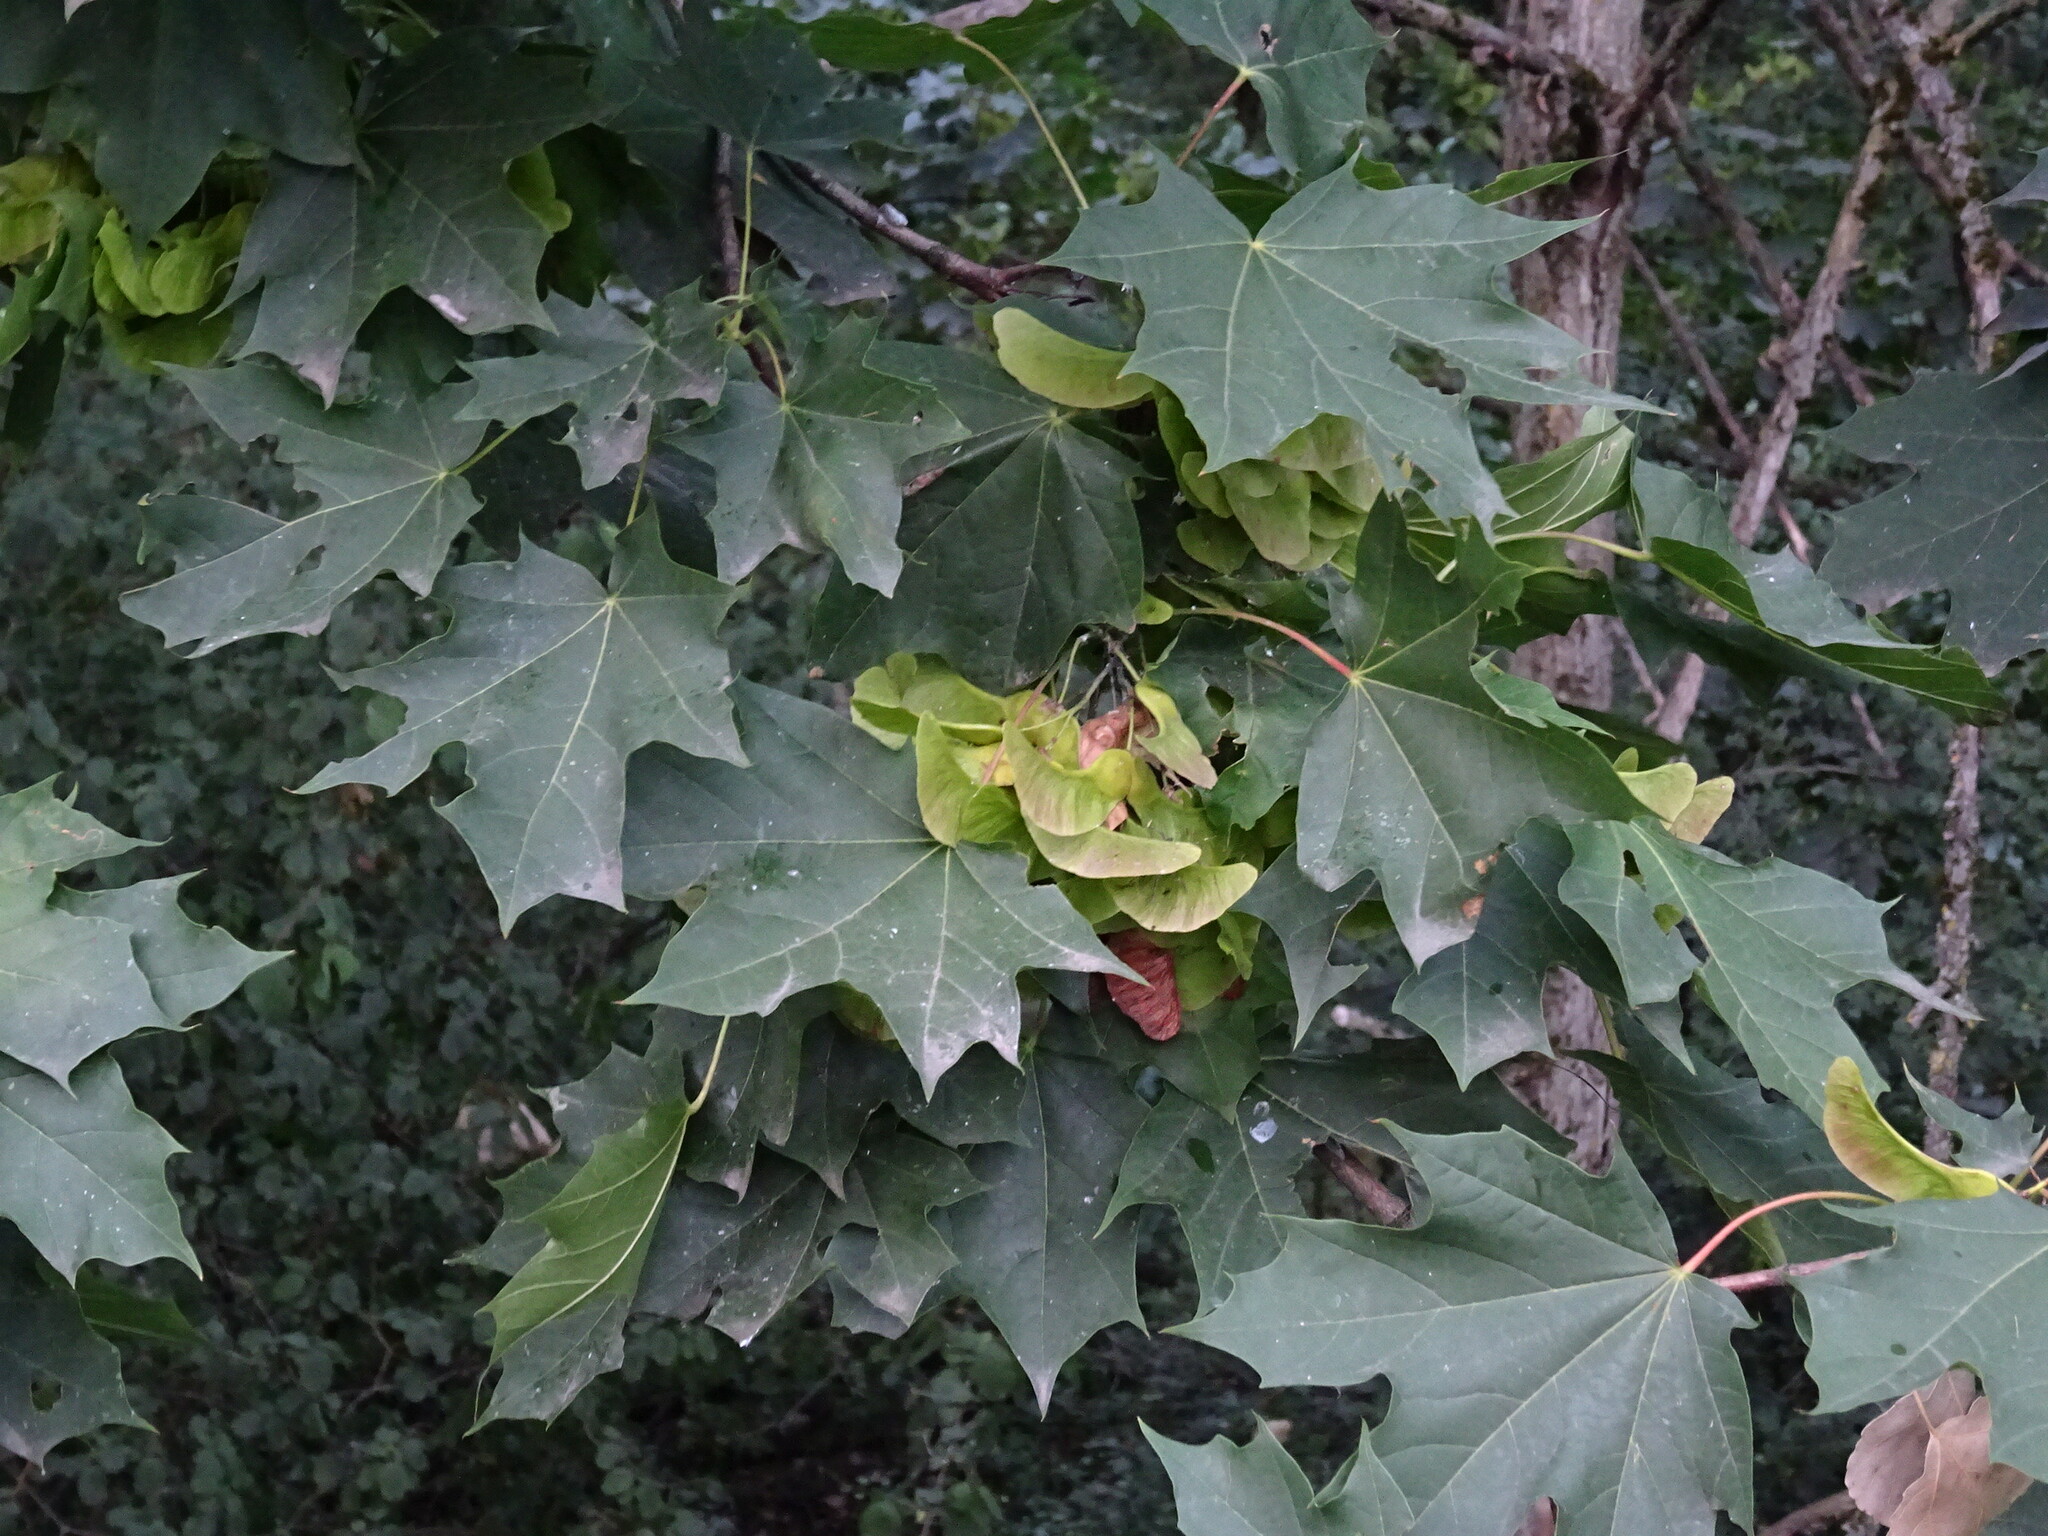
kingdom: Plantae
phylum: Tracheophyta
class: Magnoliopsida
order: Sapindales
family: Sapindaceae
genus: Acer
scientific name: Acer platanoides
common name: Norway maple
